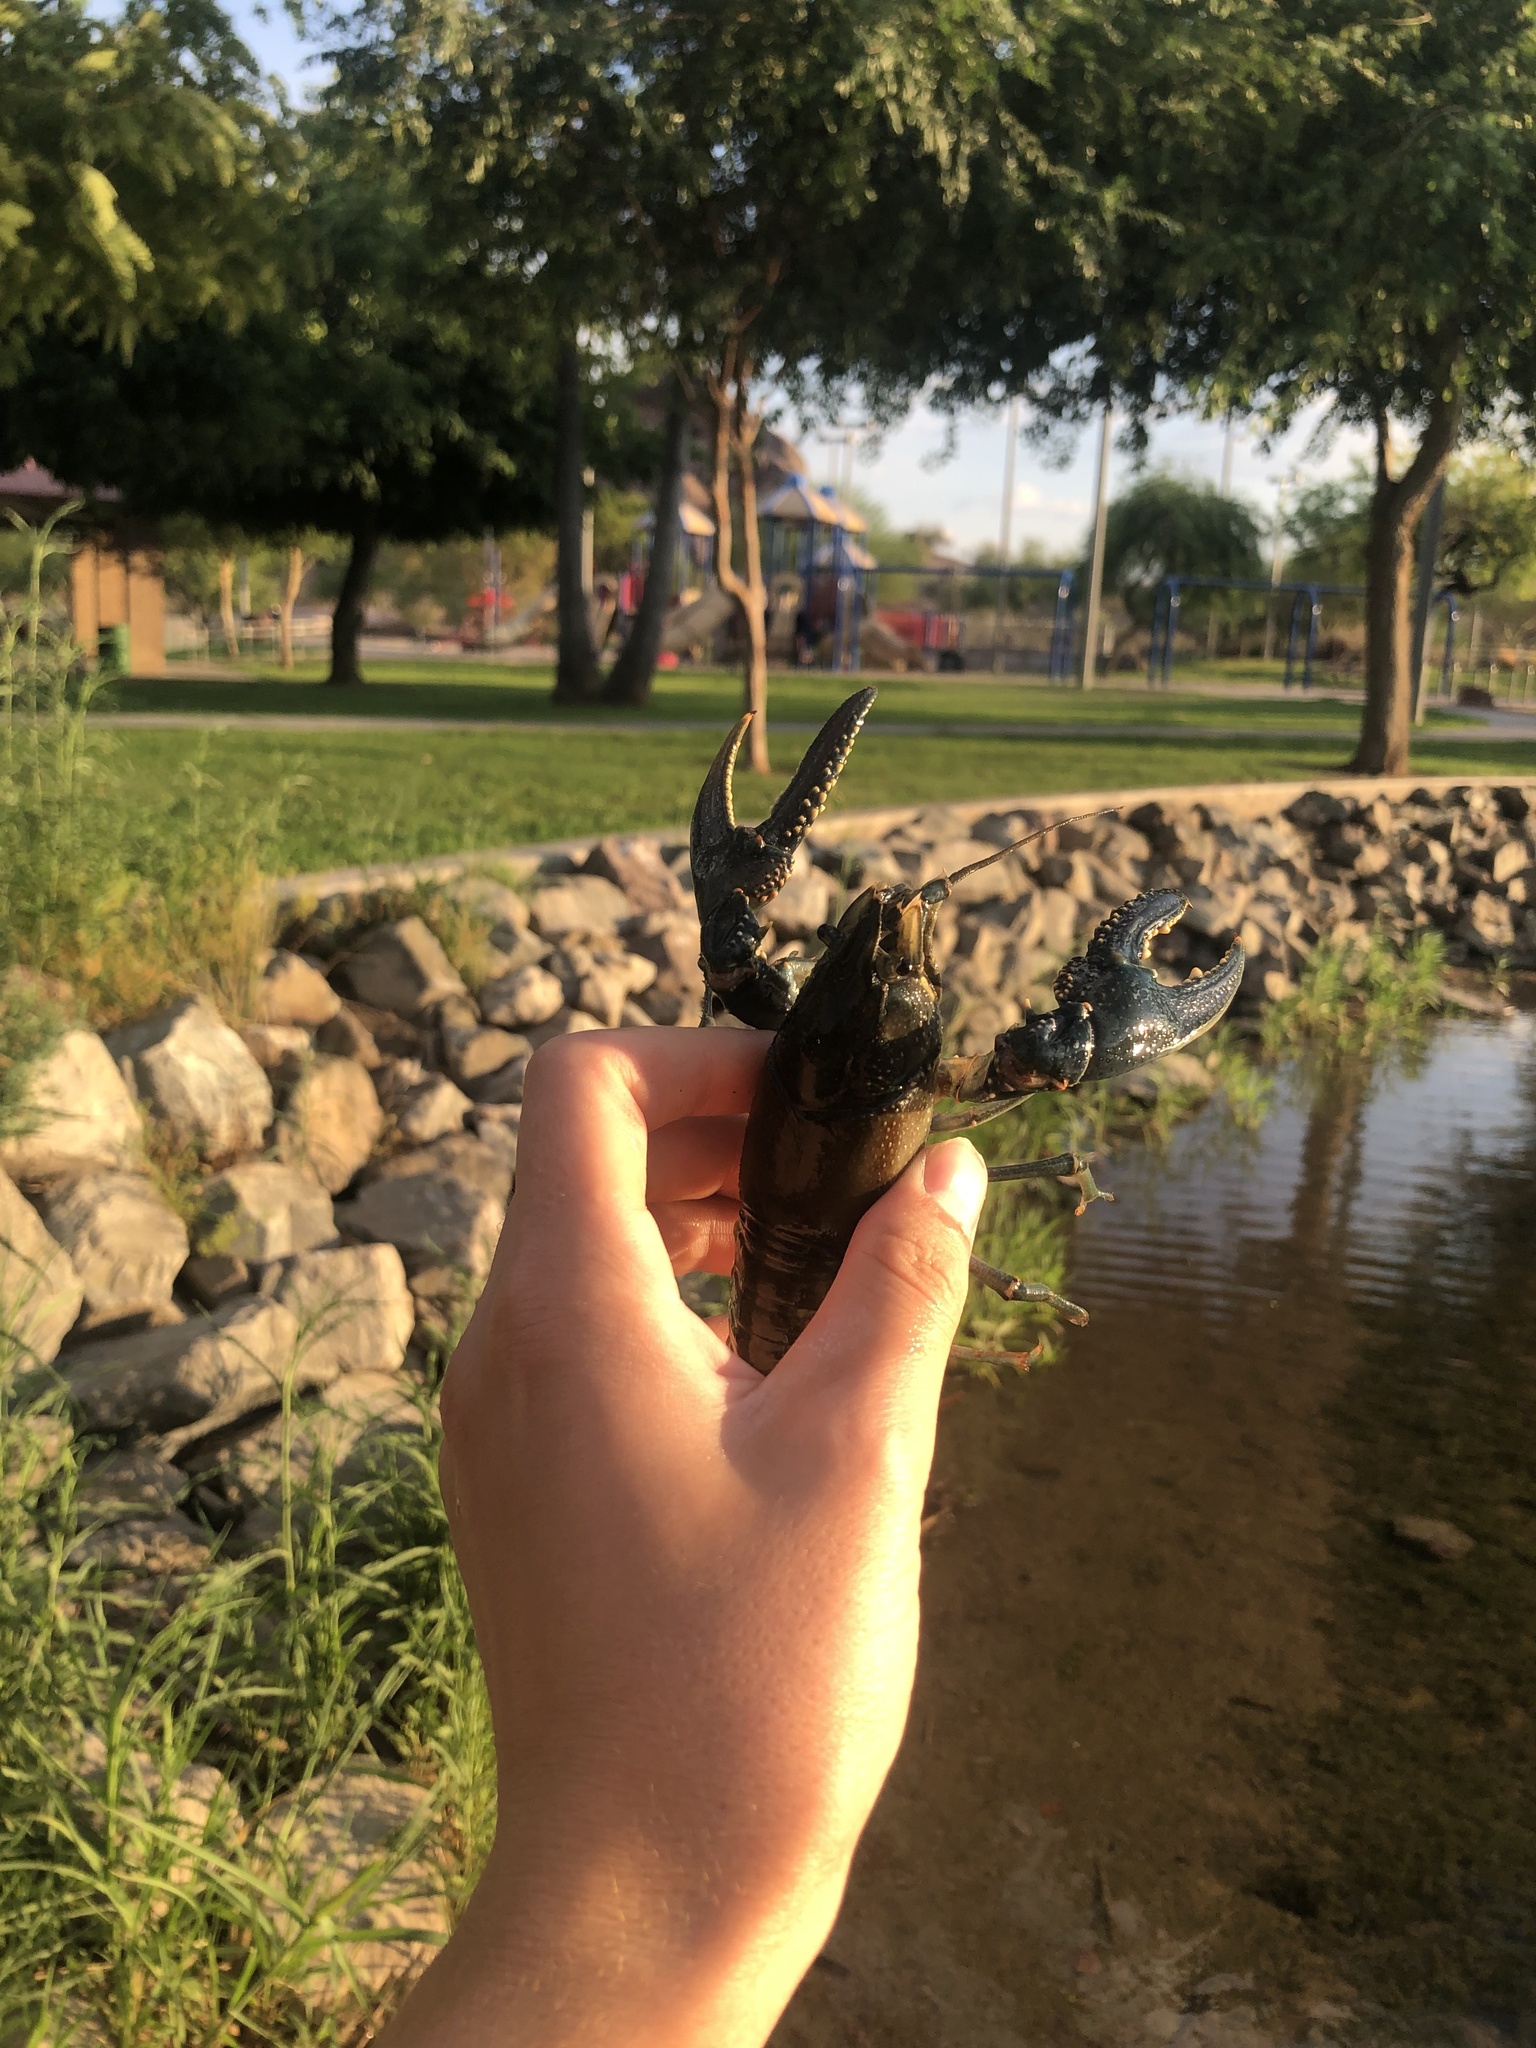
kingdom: Animalia
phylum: Arthropoda
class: Malacostraca
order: Decapoda
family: Cambaridae
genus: Faxonius
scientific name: Faxonius virilis
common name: Virile crayfish
